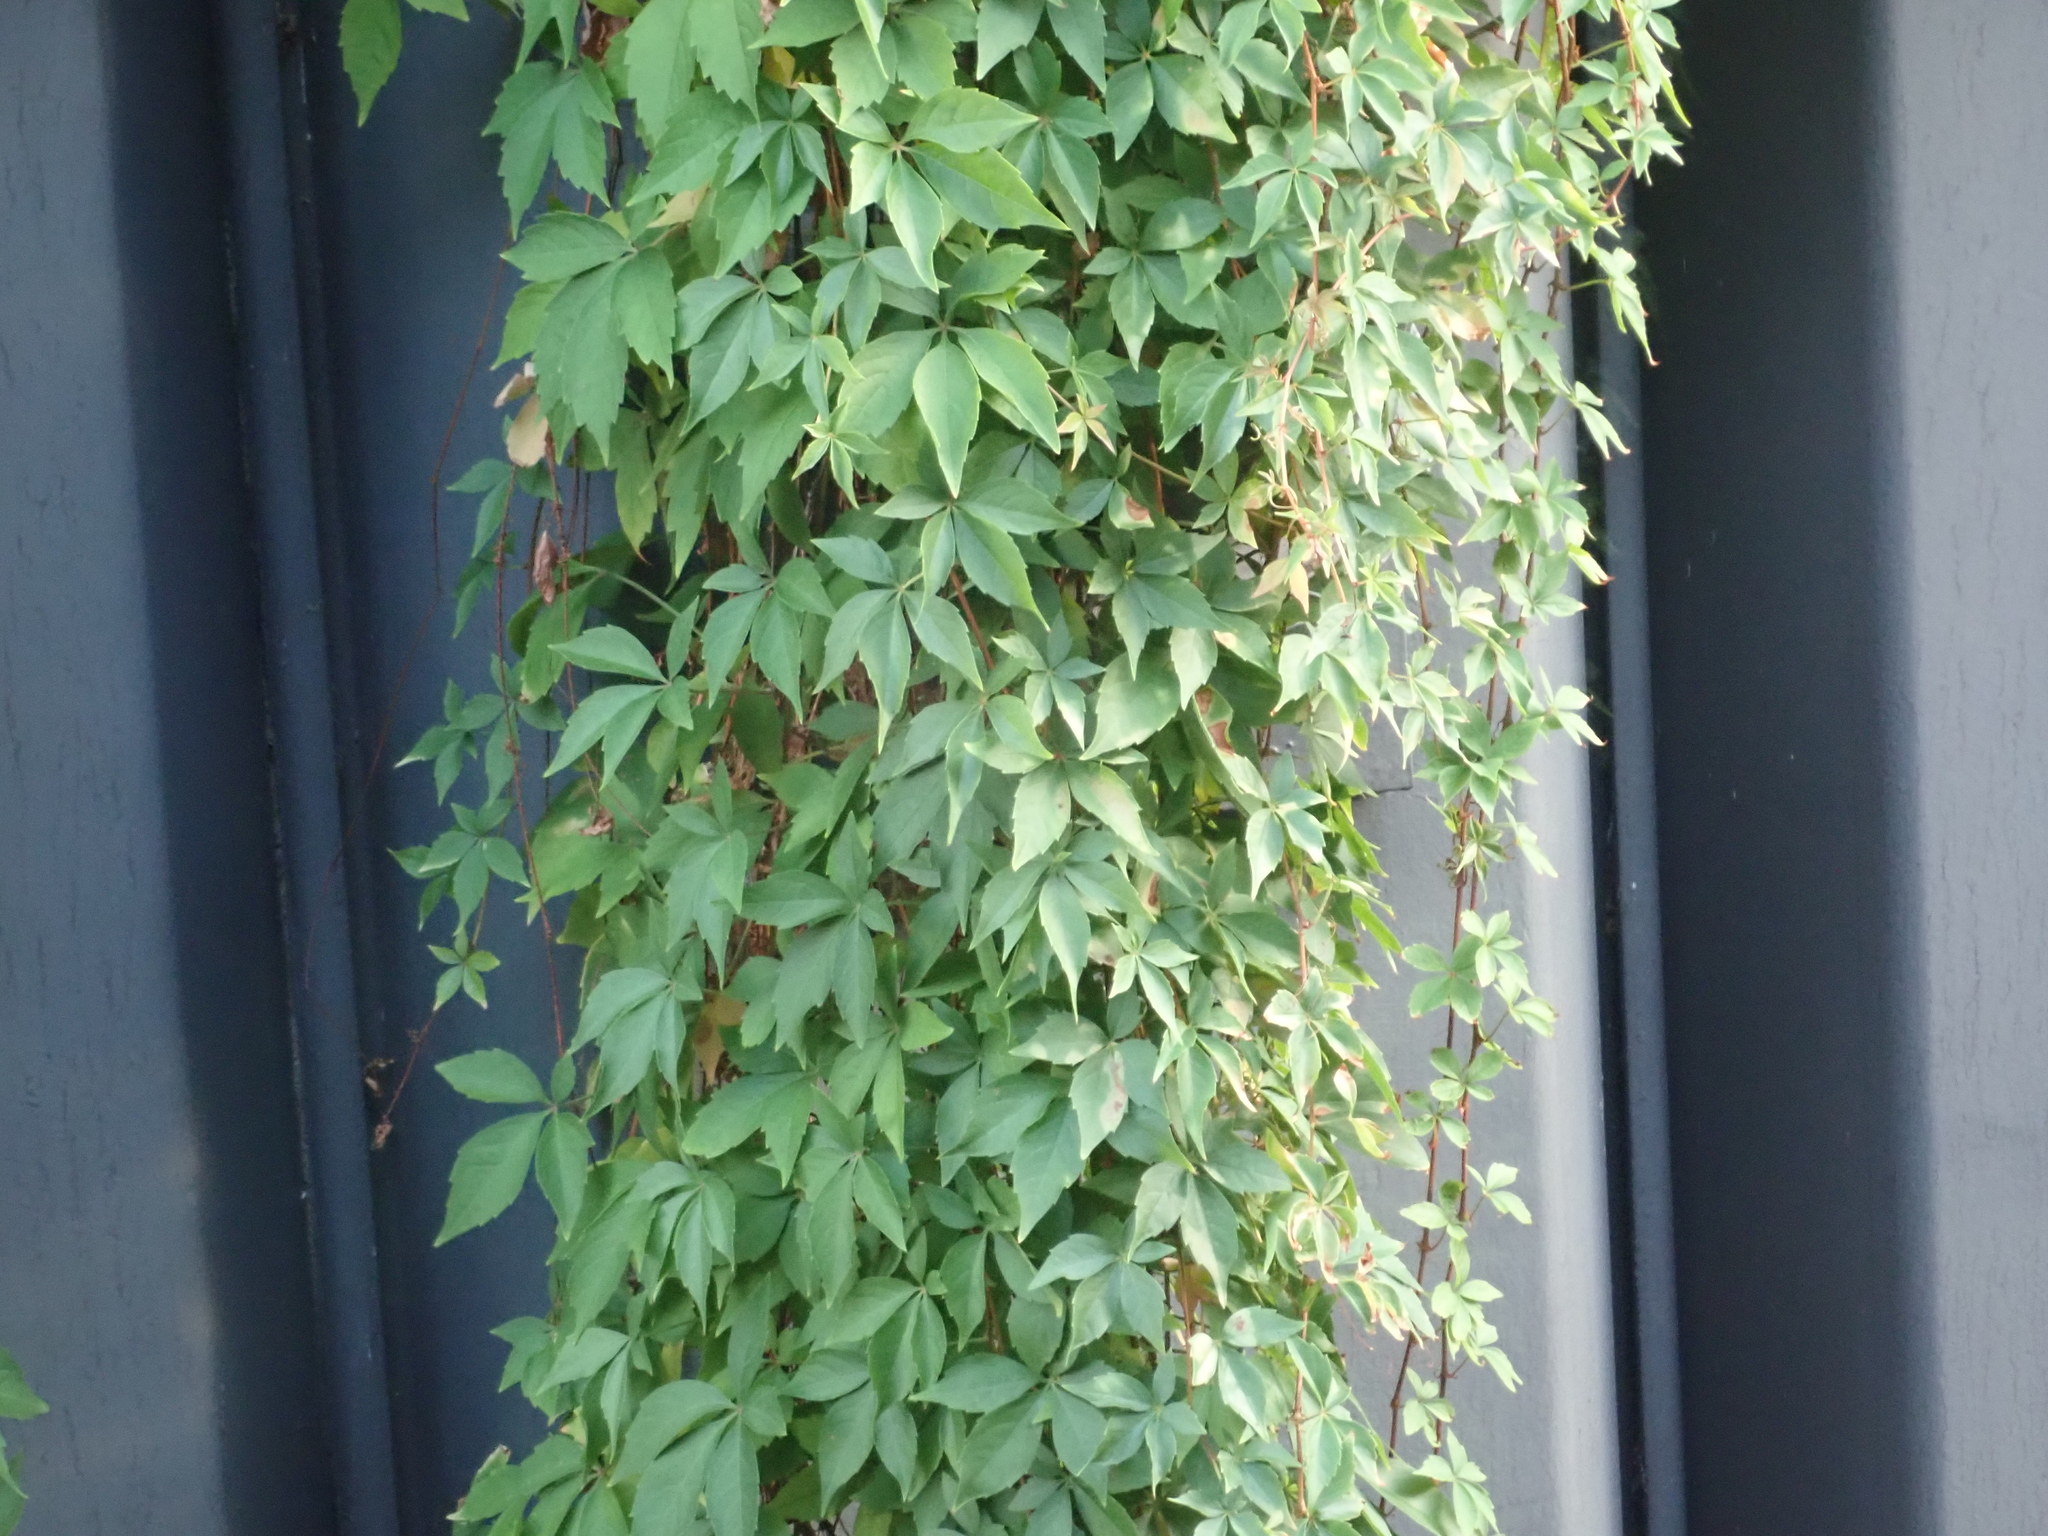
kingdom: Plantae
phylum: Tracheophyta
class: Magnoliopsida
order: Vitales
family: Vitaceae
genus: Parthenocissus
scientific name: Parthenocissus quinquefolia
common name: Virginia-creeper
